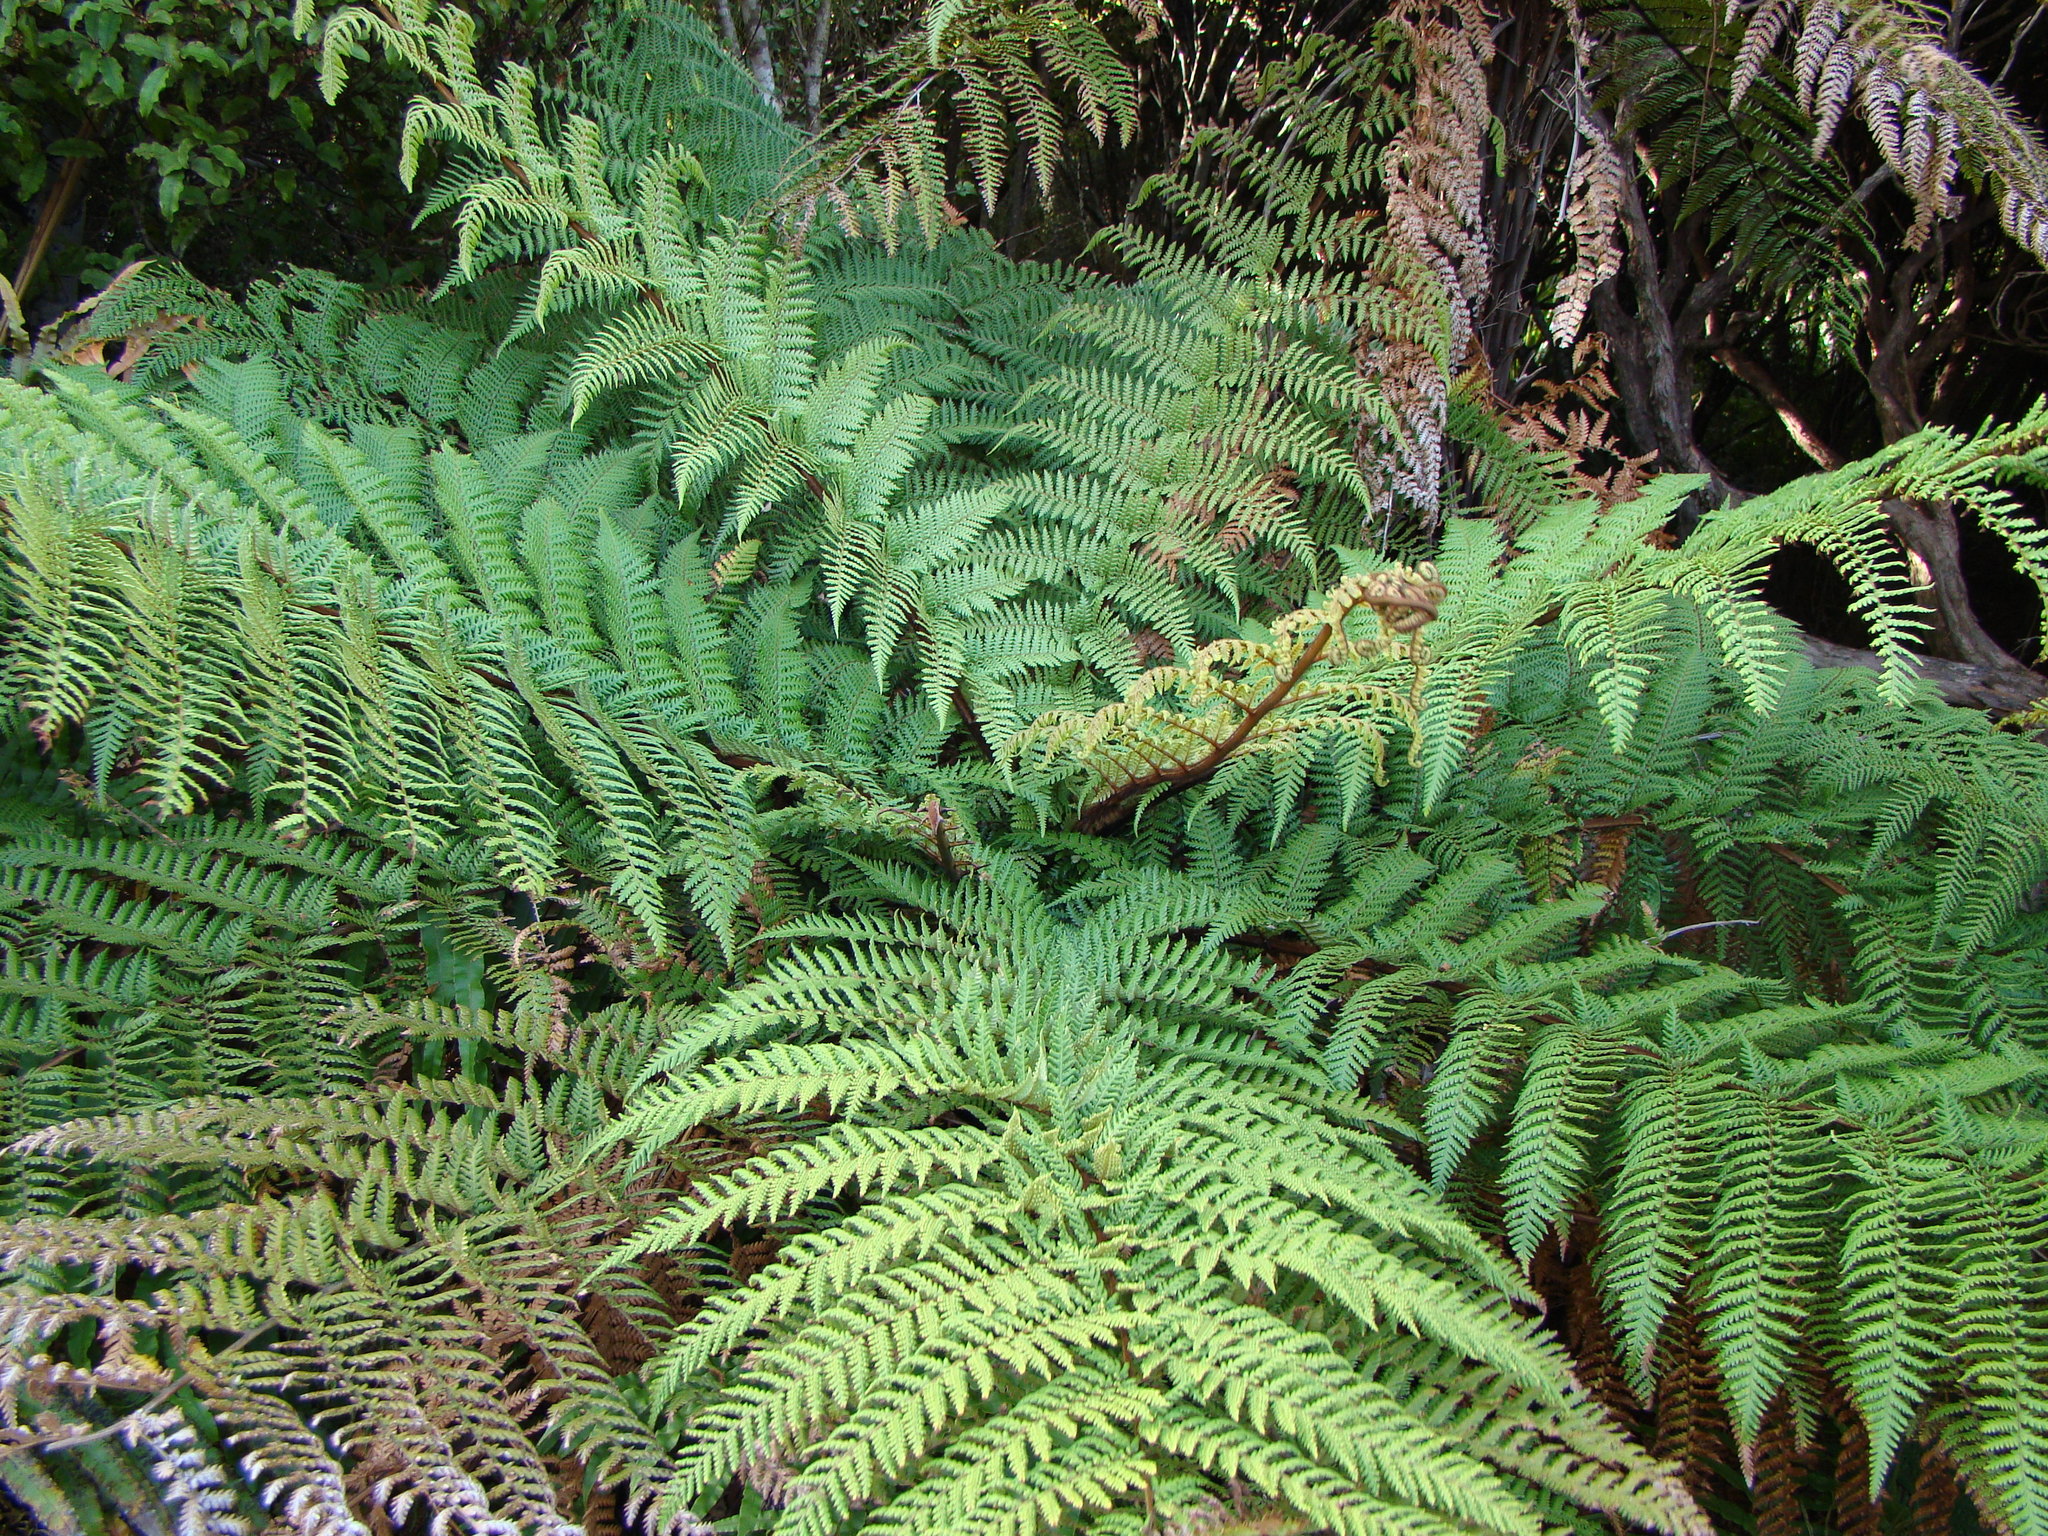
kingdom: Plantae
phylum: Tracheophyta
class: Polypodiopsida
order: Cyatheales
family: Dicksoniaceae
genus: Dicksonia
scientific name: Dicksonia squarrosa
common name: Hard treefern
